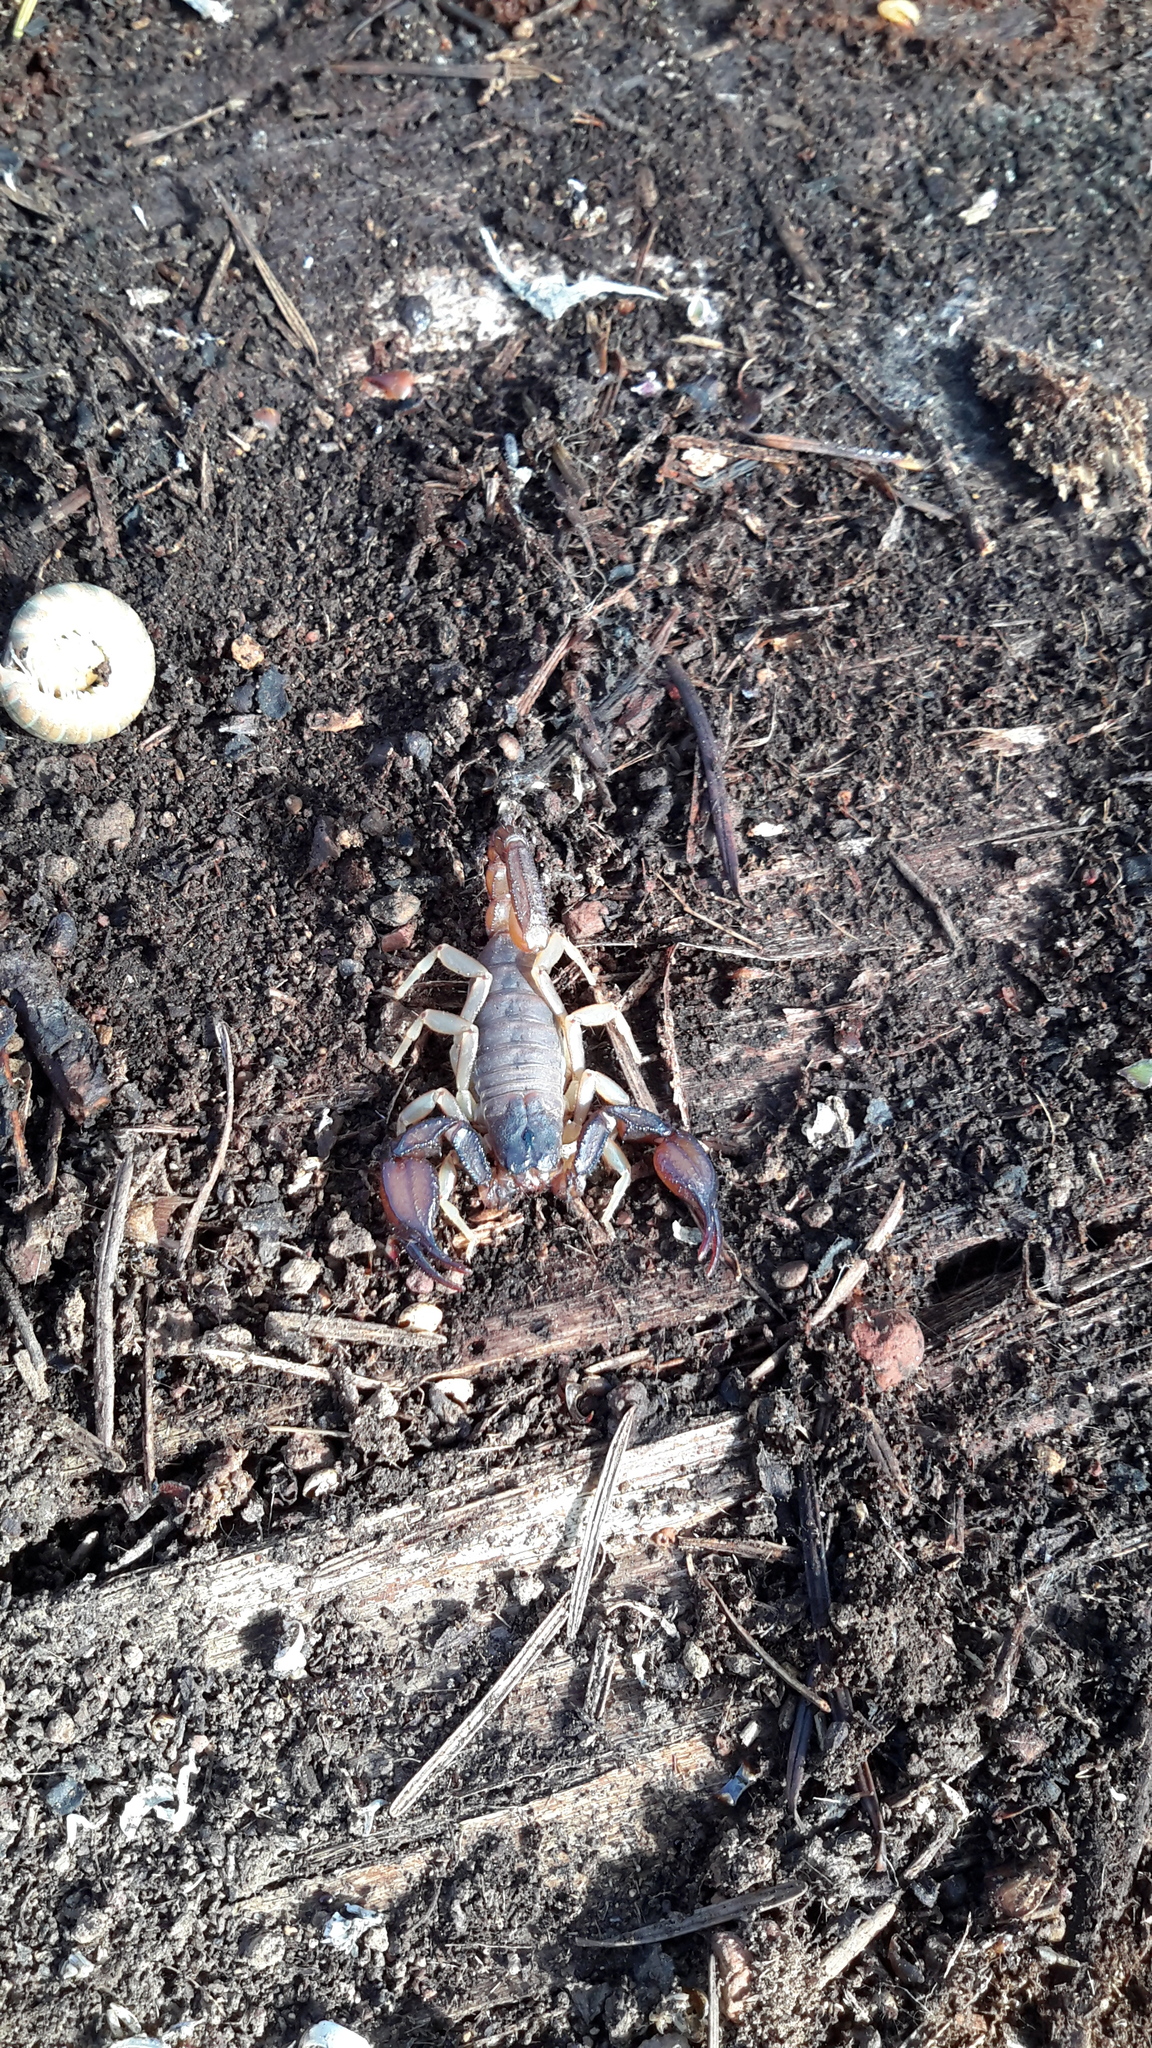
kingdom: Animalia
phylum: Arthropoda
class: Arachnida
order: Scorpiones
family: Chactidae
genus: Uroctonus
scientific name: Uroctonus mordax
